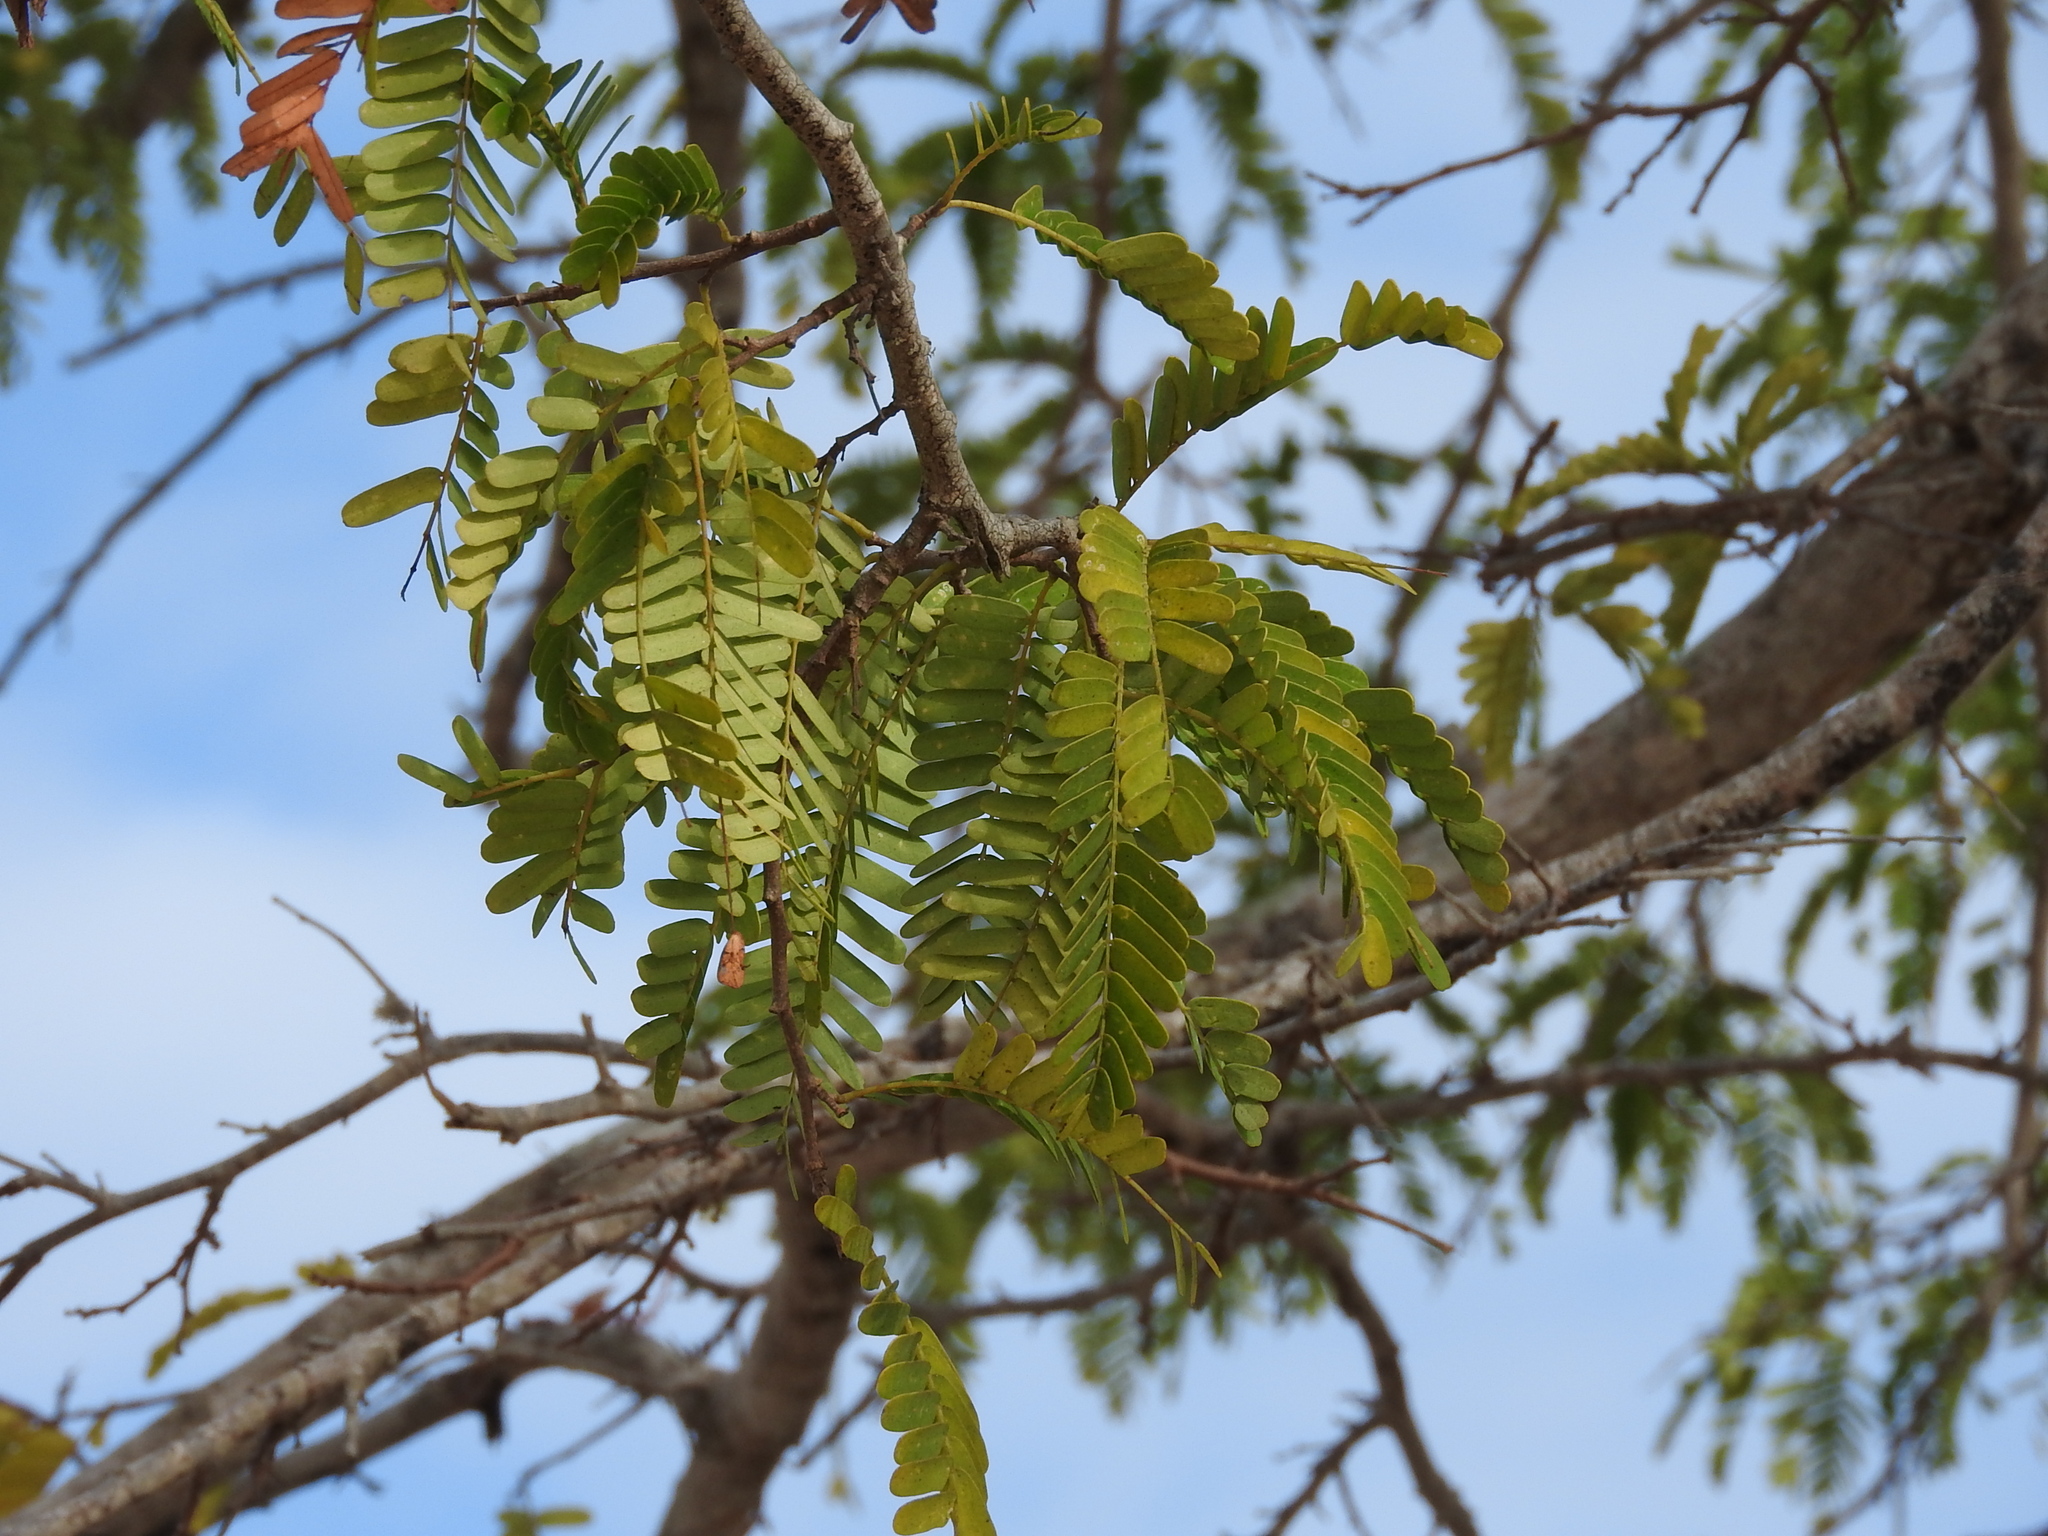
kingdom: Plantae
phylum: Tracheophyta
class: Magnoliopsida
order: Fabales
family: Fabaceae
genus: Tamarindus
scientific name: Tamarindus indica
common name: Tamarind
